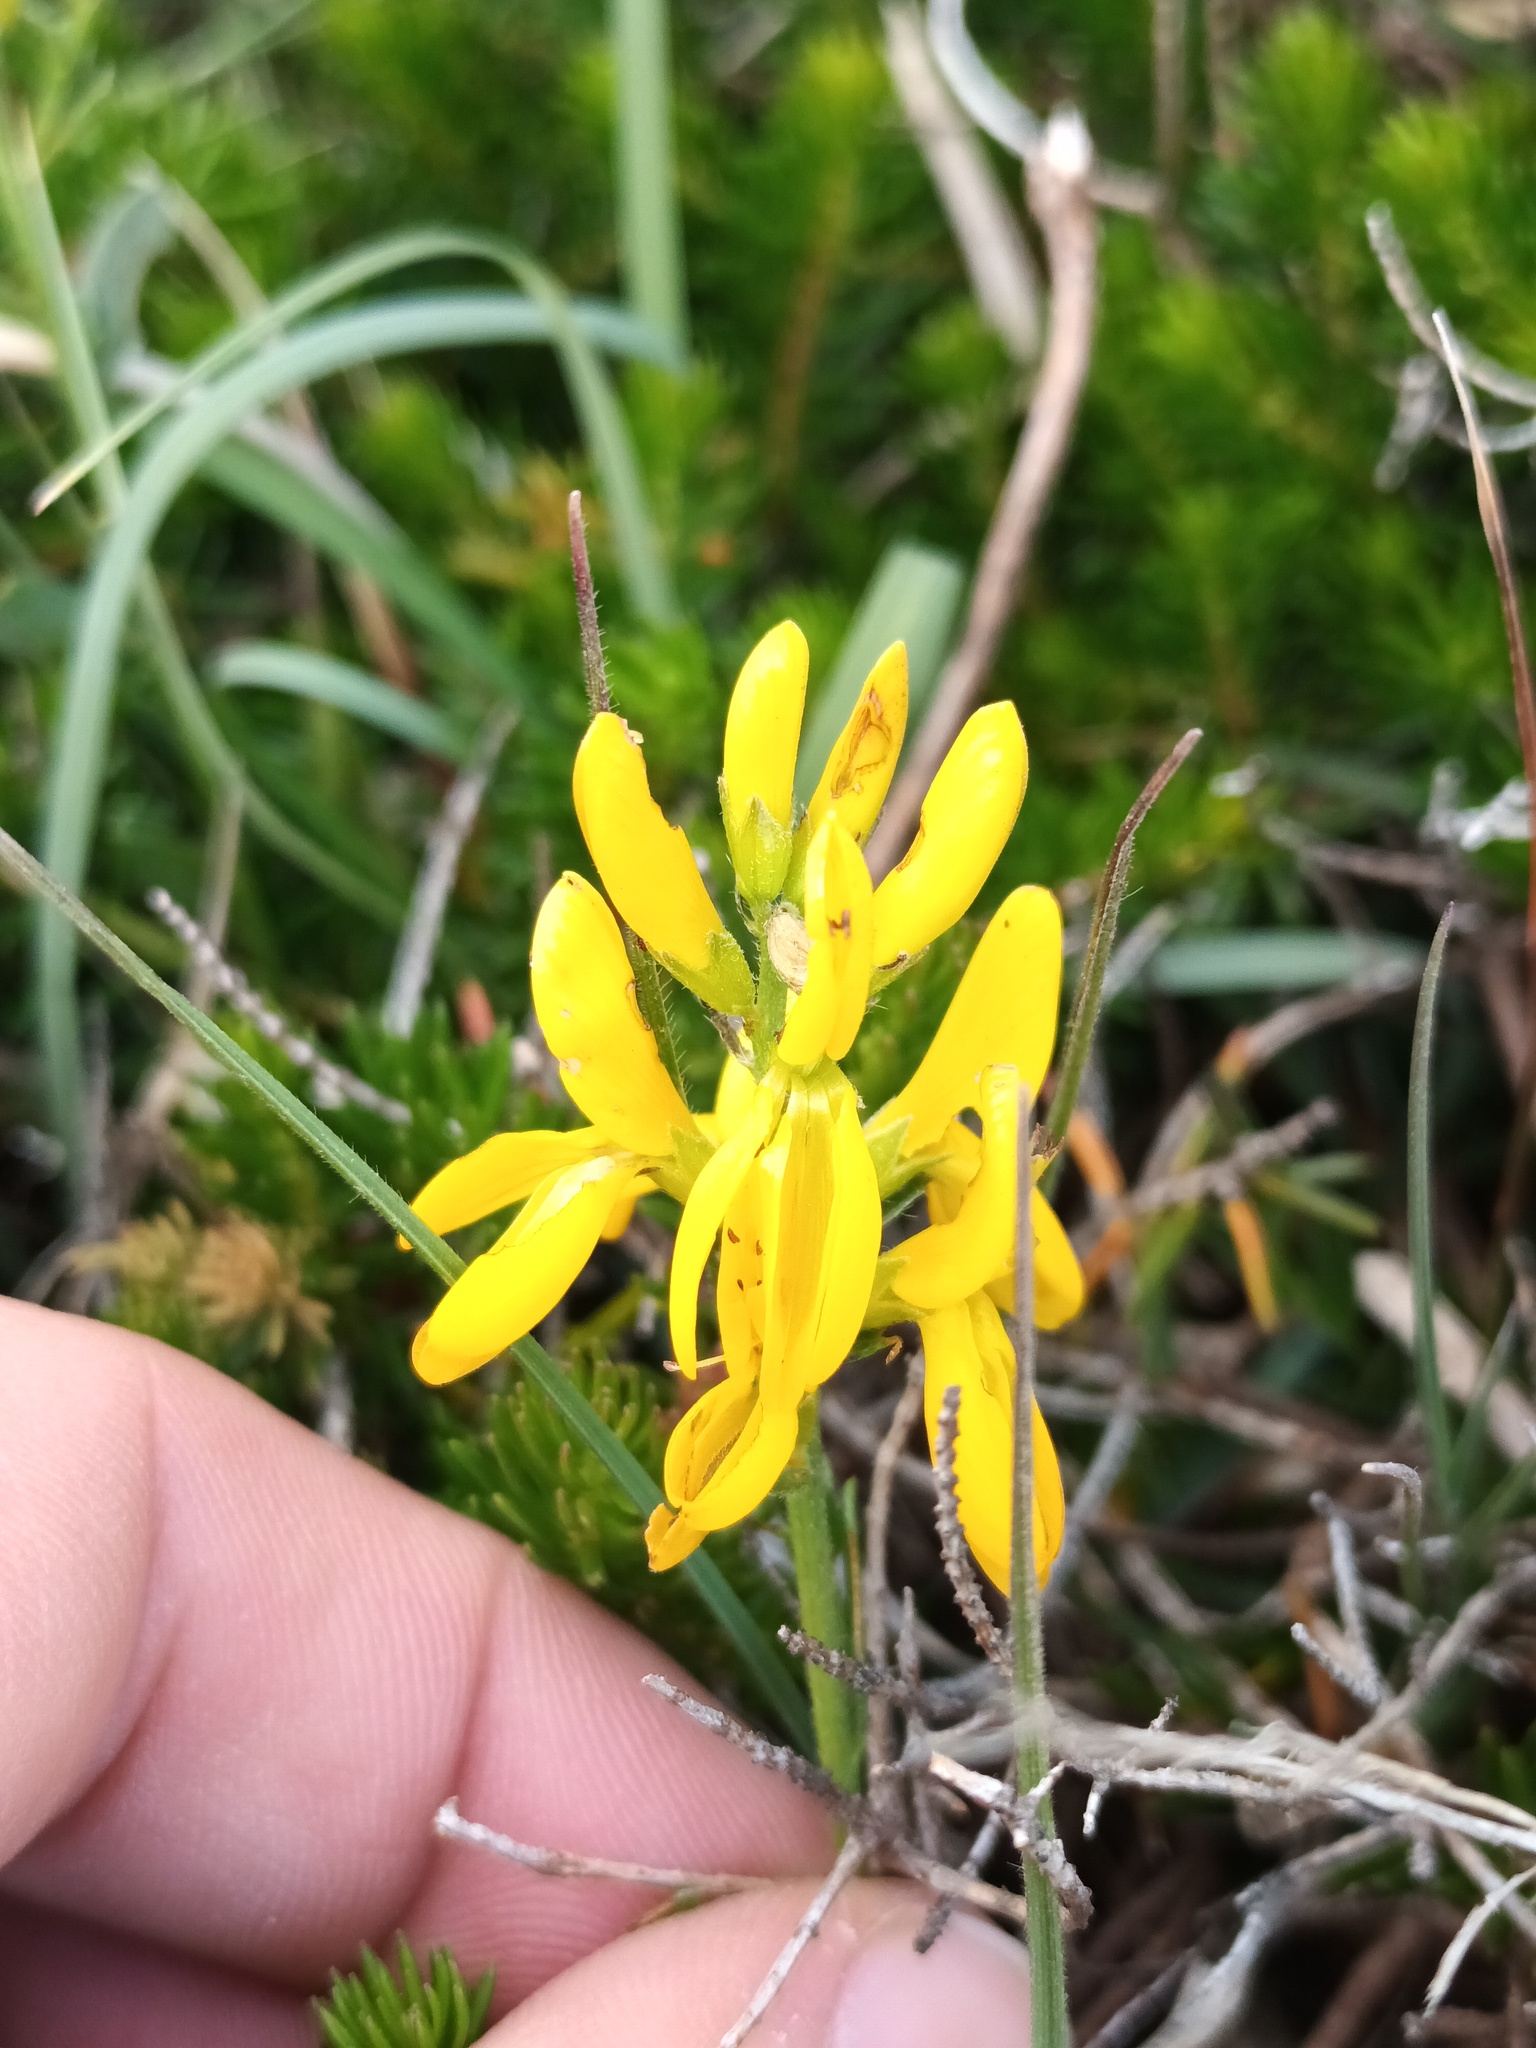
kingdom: Plantae
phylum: Tracheophyta
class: Magnoliopsida
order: Fabales
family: Fabaceae
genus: Genista
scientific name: Genista tinctoria
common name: Dyer's greenweed
